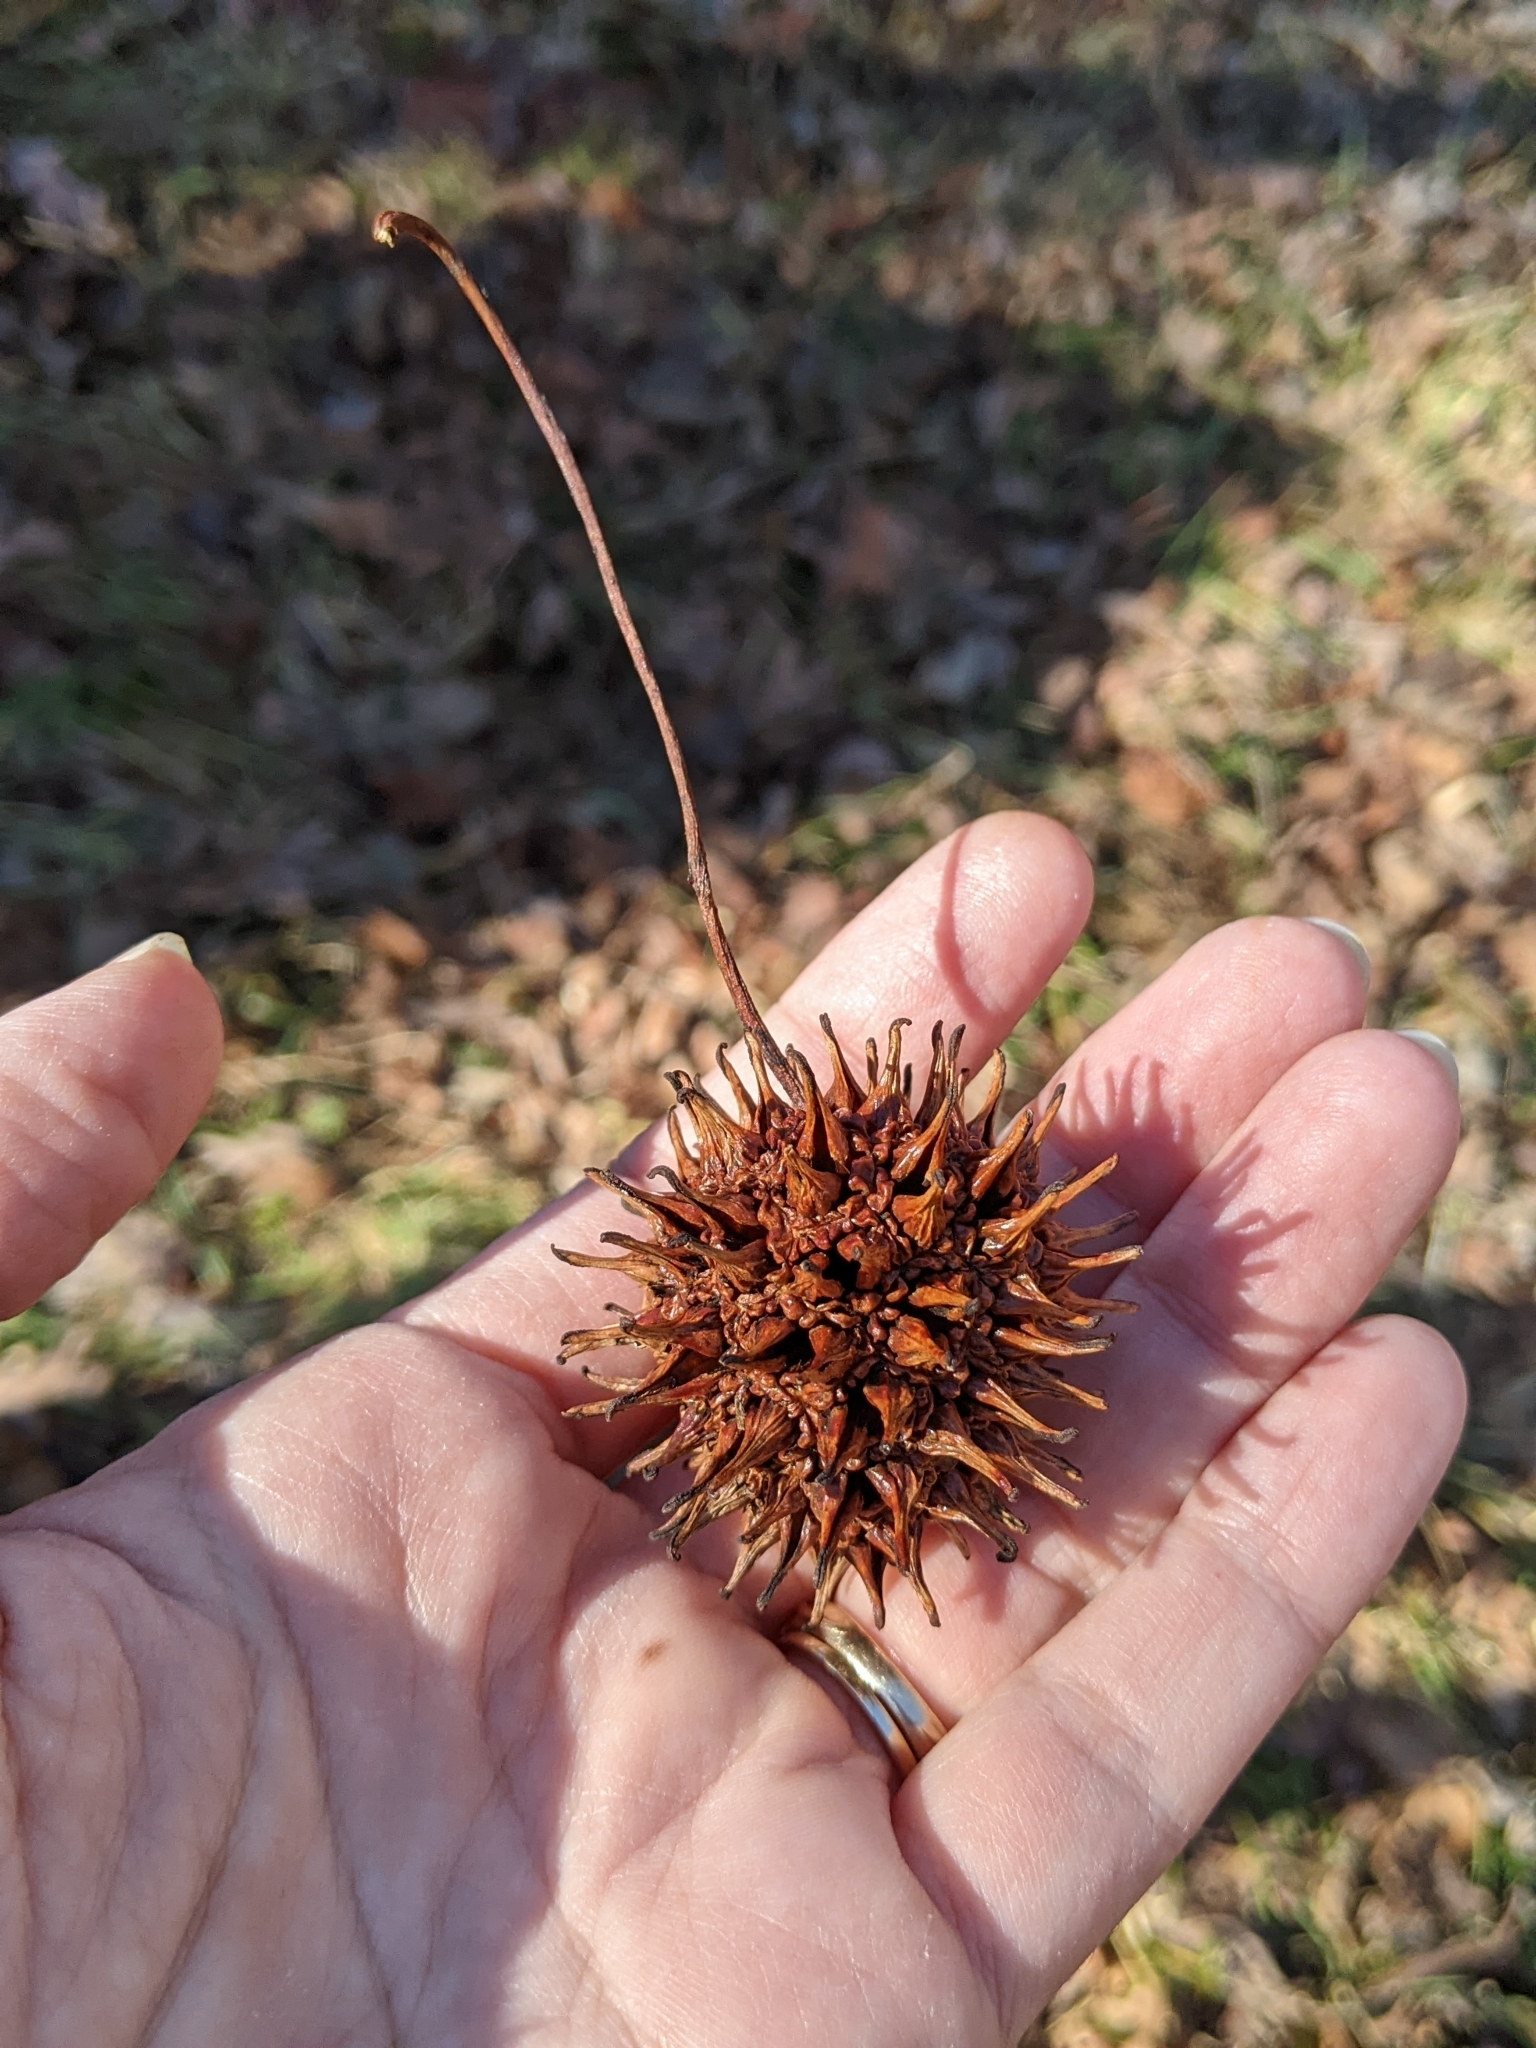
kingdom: Plantae
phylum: Tracheophyta
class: Magnoliopsida
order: Saxifragales
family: Altingiaceae
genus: Liquidambar
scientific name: Liquidambar styraciflua
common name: Sweet gum
